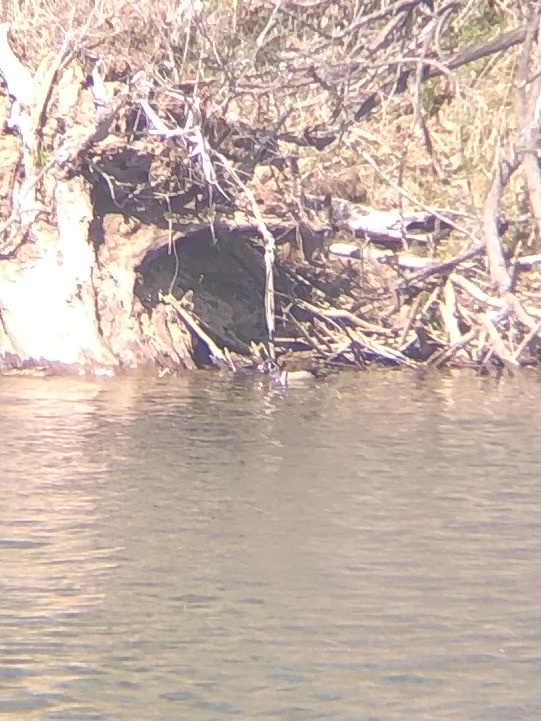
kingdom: Animalia
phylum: Chordata
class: Aves
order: Anseriformes
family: Anatidae
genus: Aix
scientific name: Aix sponsa
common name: Wood duck
